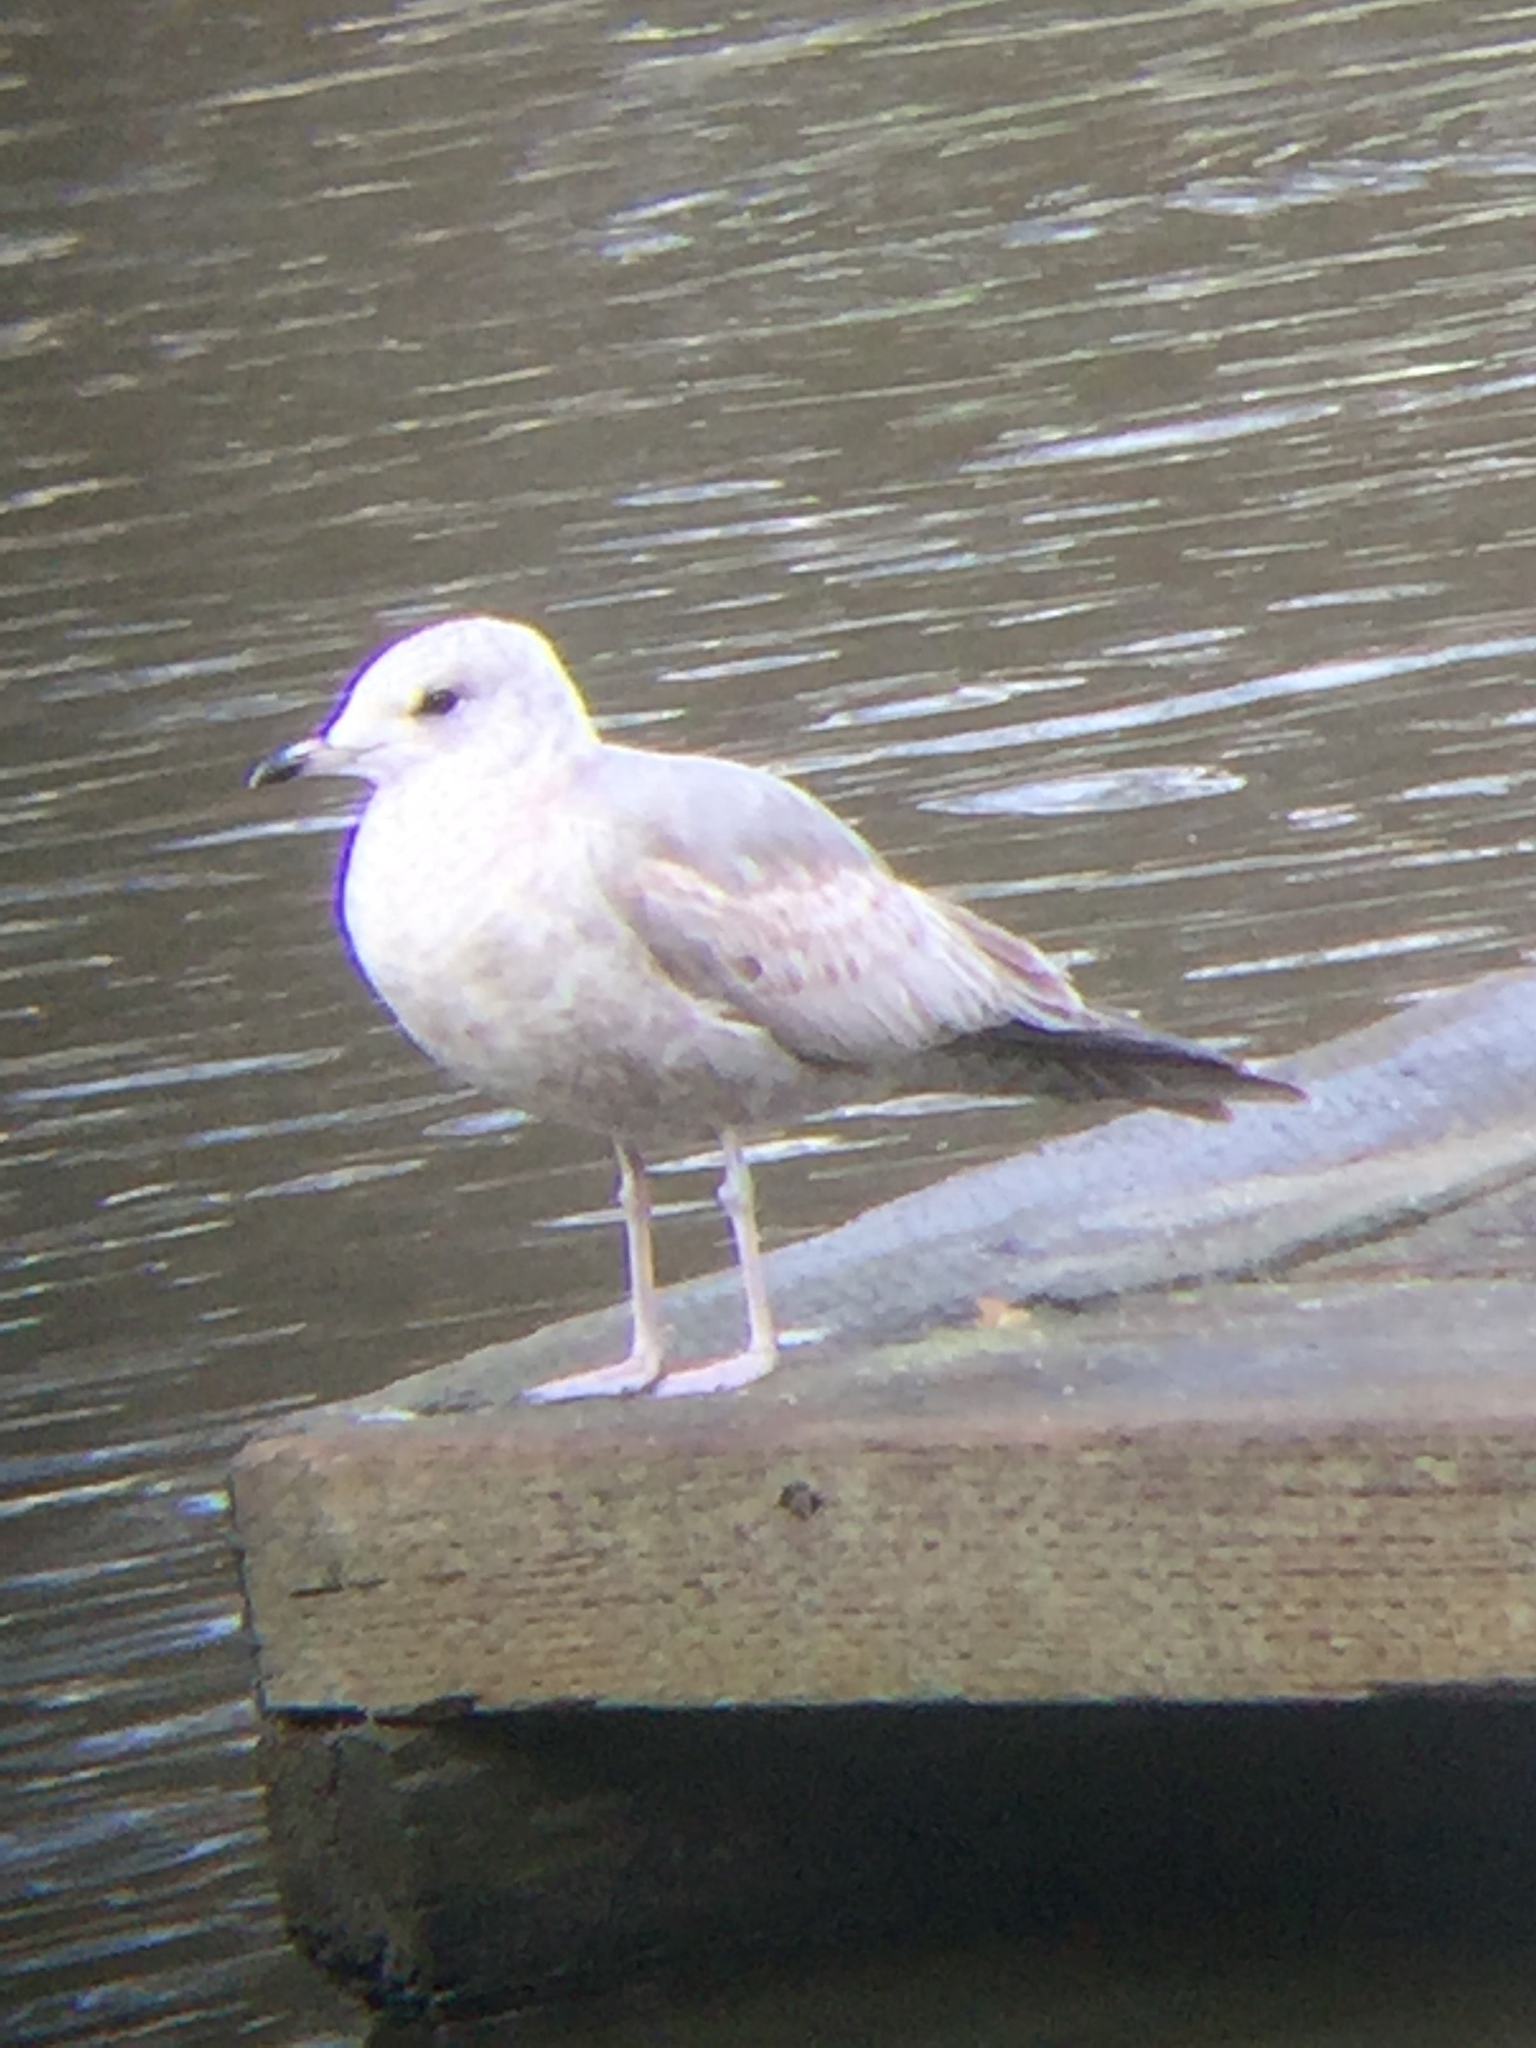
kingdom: Animalia
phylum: Chordata
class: Aves
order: Charadriiformes
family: Laridae
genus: Larus
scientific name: Larus brachyrhynchus
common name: Short-billed gull
